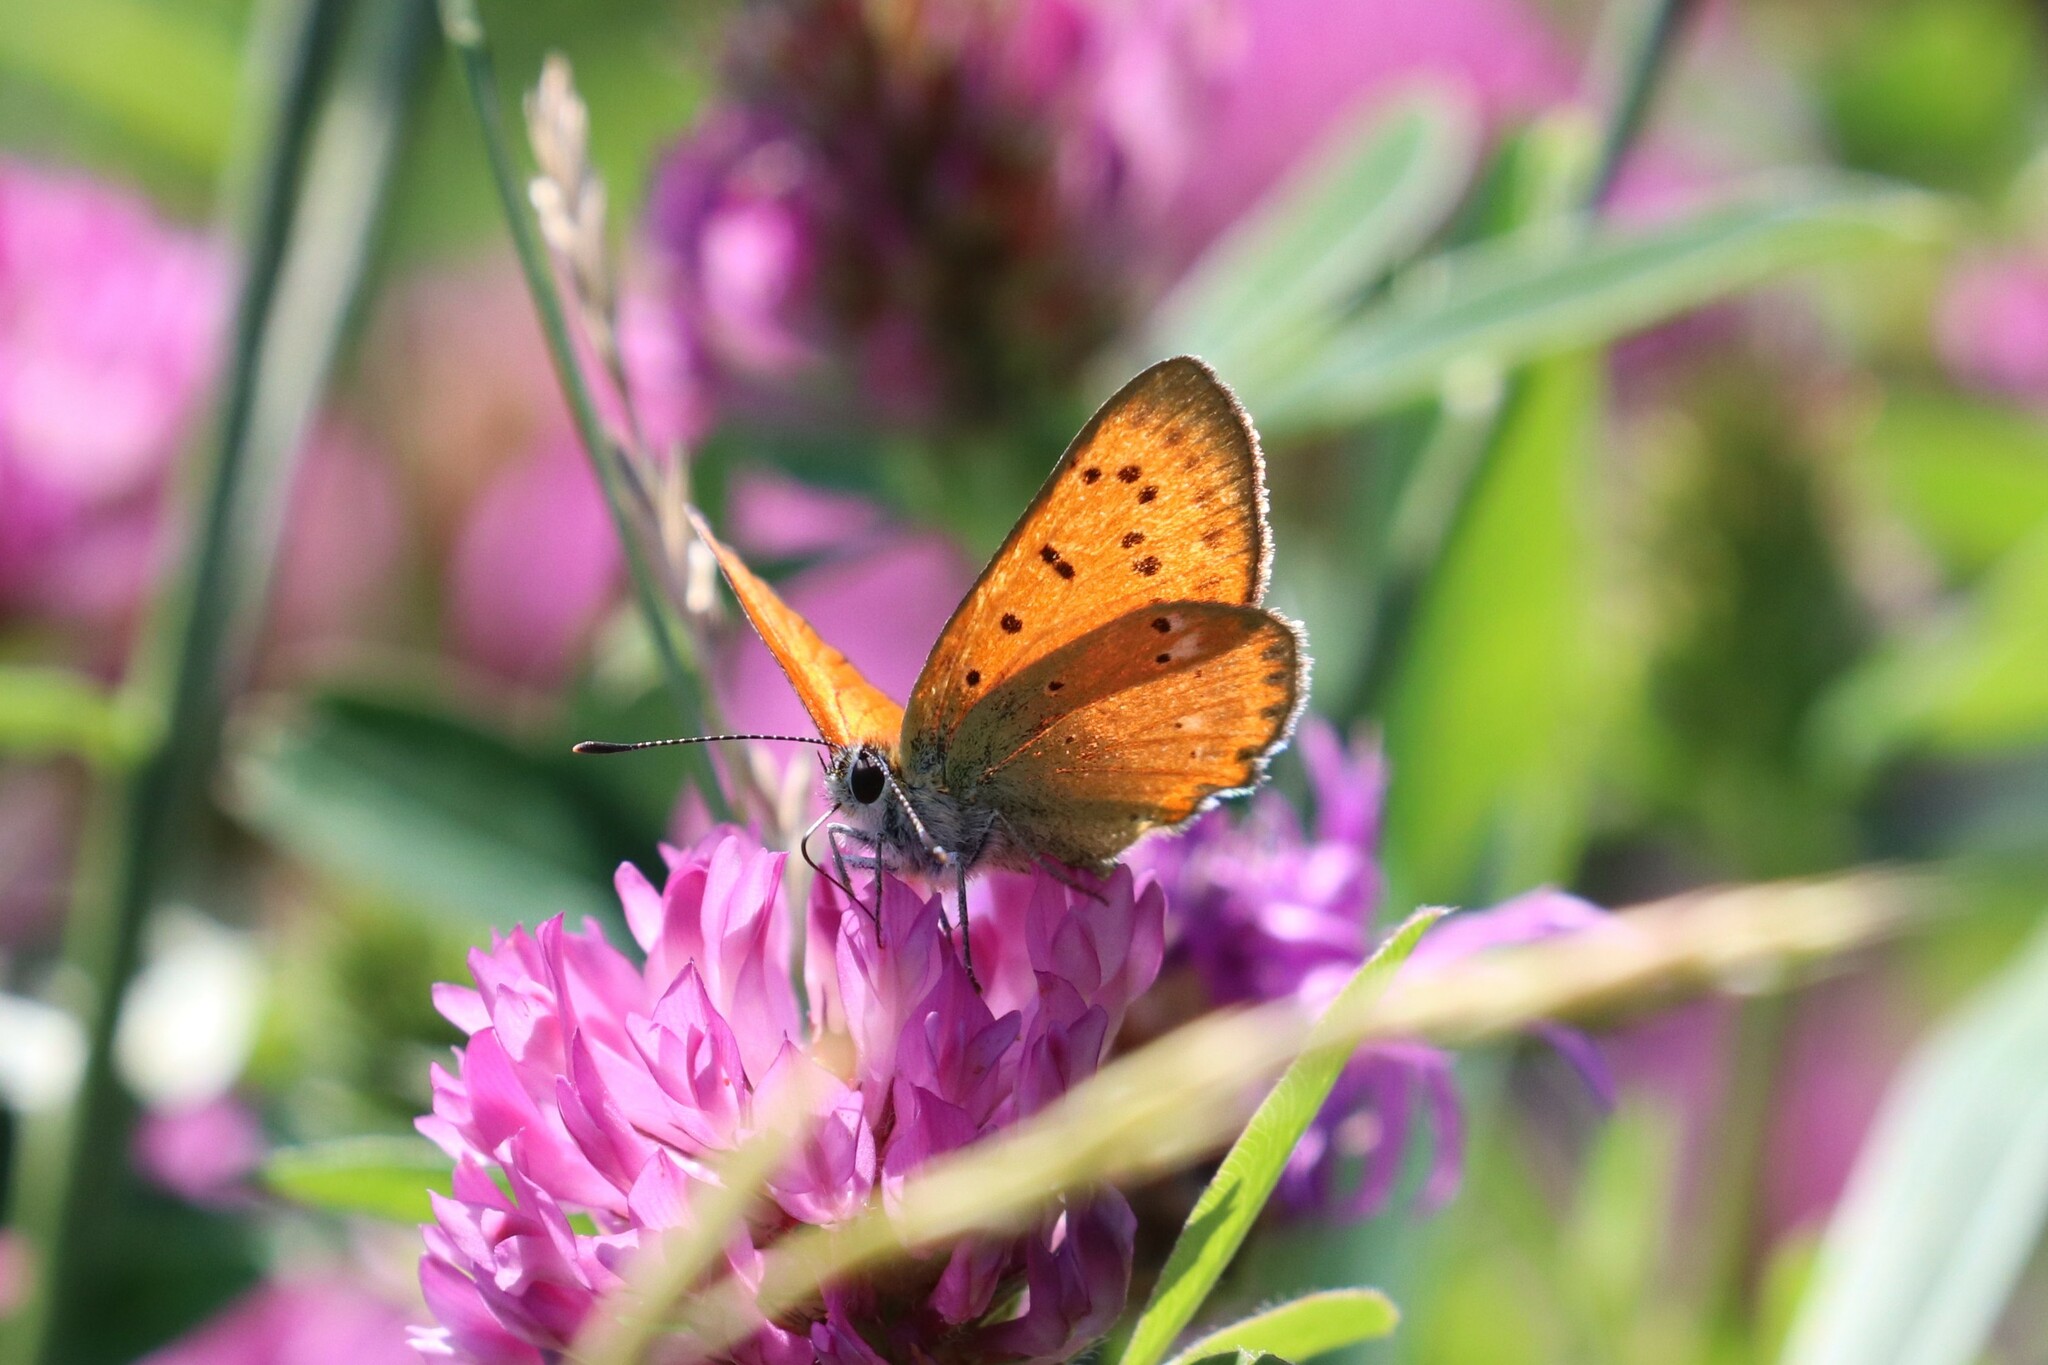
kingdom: Animalia
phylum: Arthropoda
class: Insecta
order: Lepidoptera
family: Lycaenidae
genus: Lycaena
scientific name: Lycaena virgaureae
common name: Scarce copper
